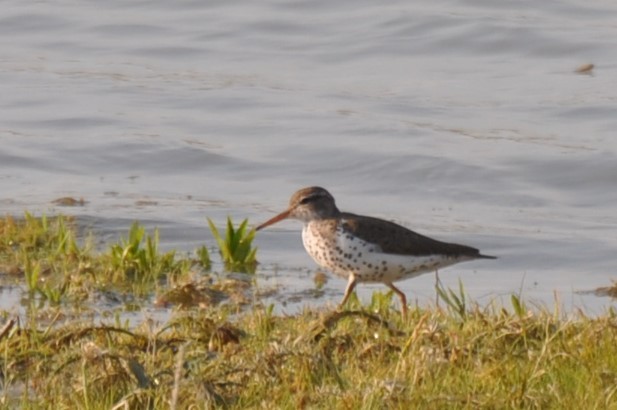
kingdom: Animalia
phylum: Chordata
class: Aves
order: Charadriiformes
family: Scolopacidae
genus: Actitis
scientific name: Actitis macularius
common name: Spotted sandpiper
